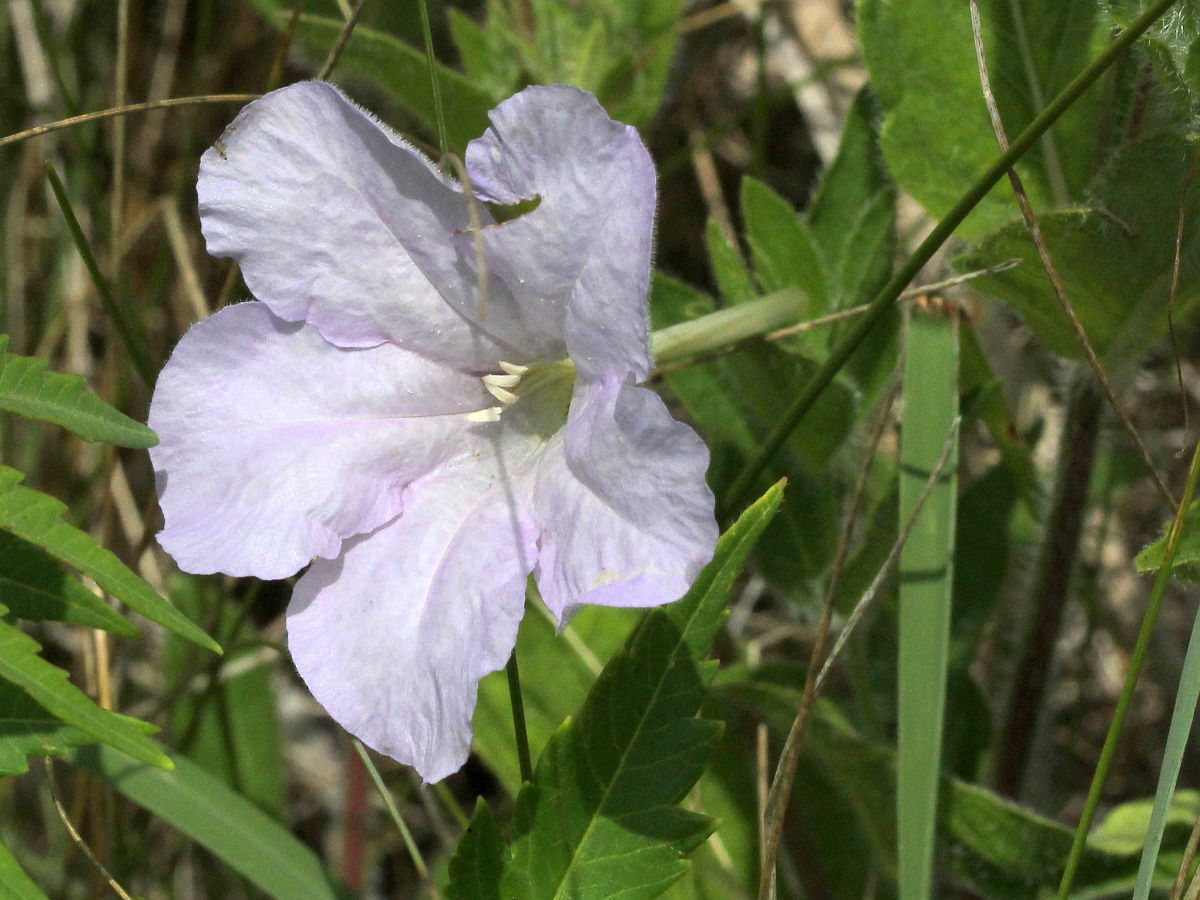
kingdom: Plantae
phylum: Tracheophyta
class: Magnoliopsida
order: Lamiales
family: Acanthaceae
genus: Ruellia
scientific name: Ruellia humilis
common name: Fringe-leaf ruellia
